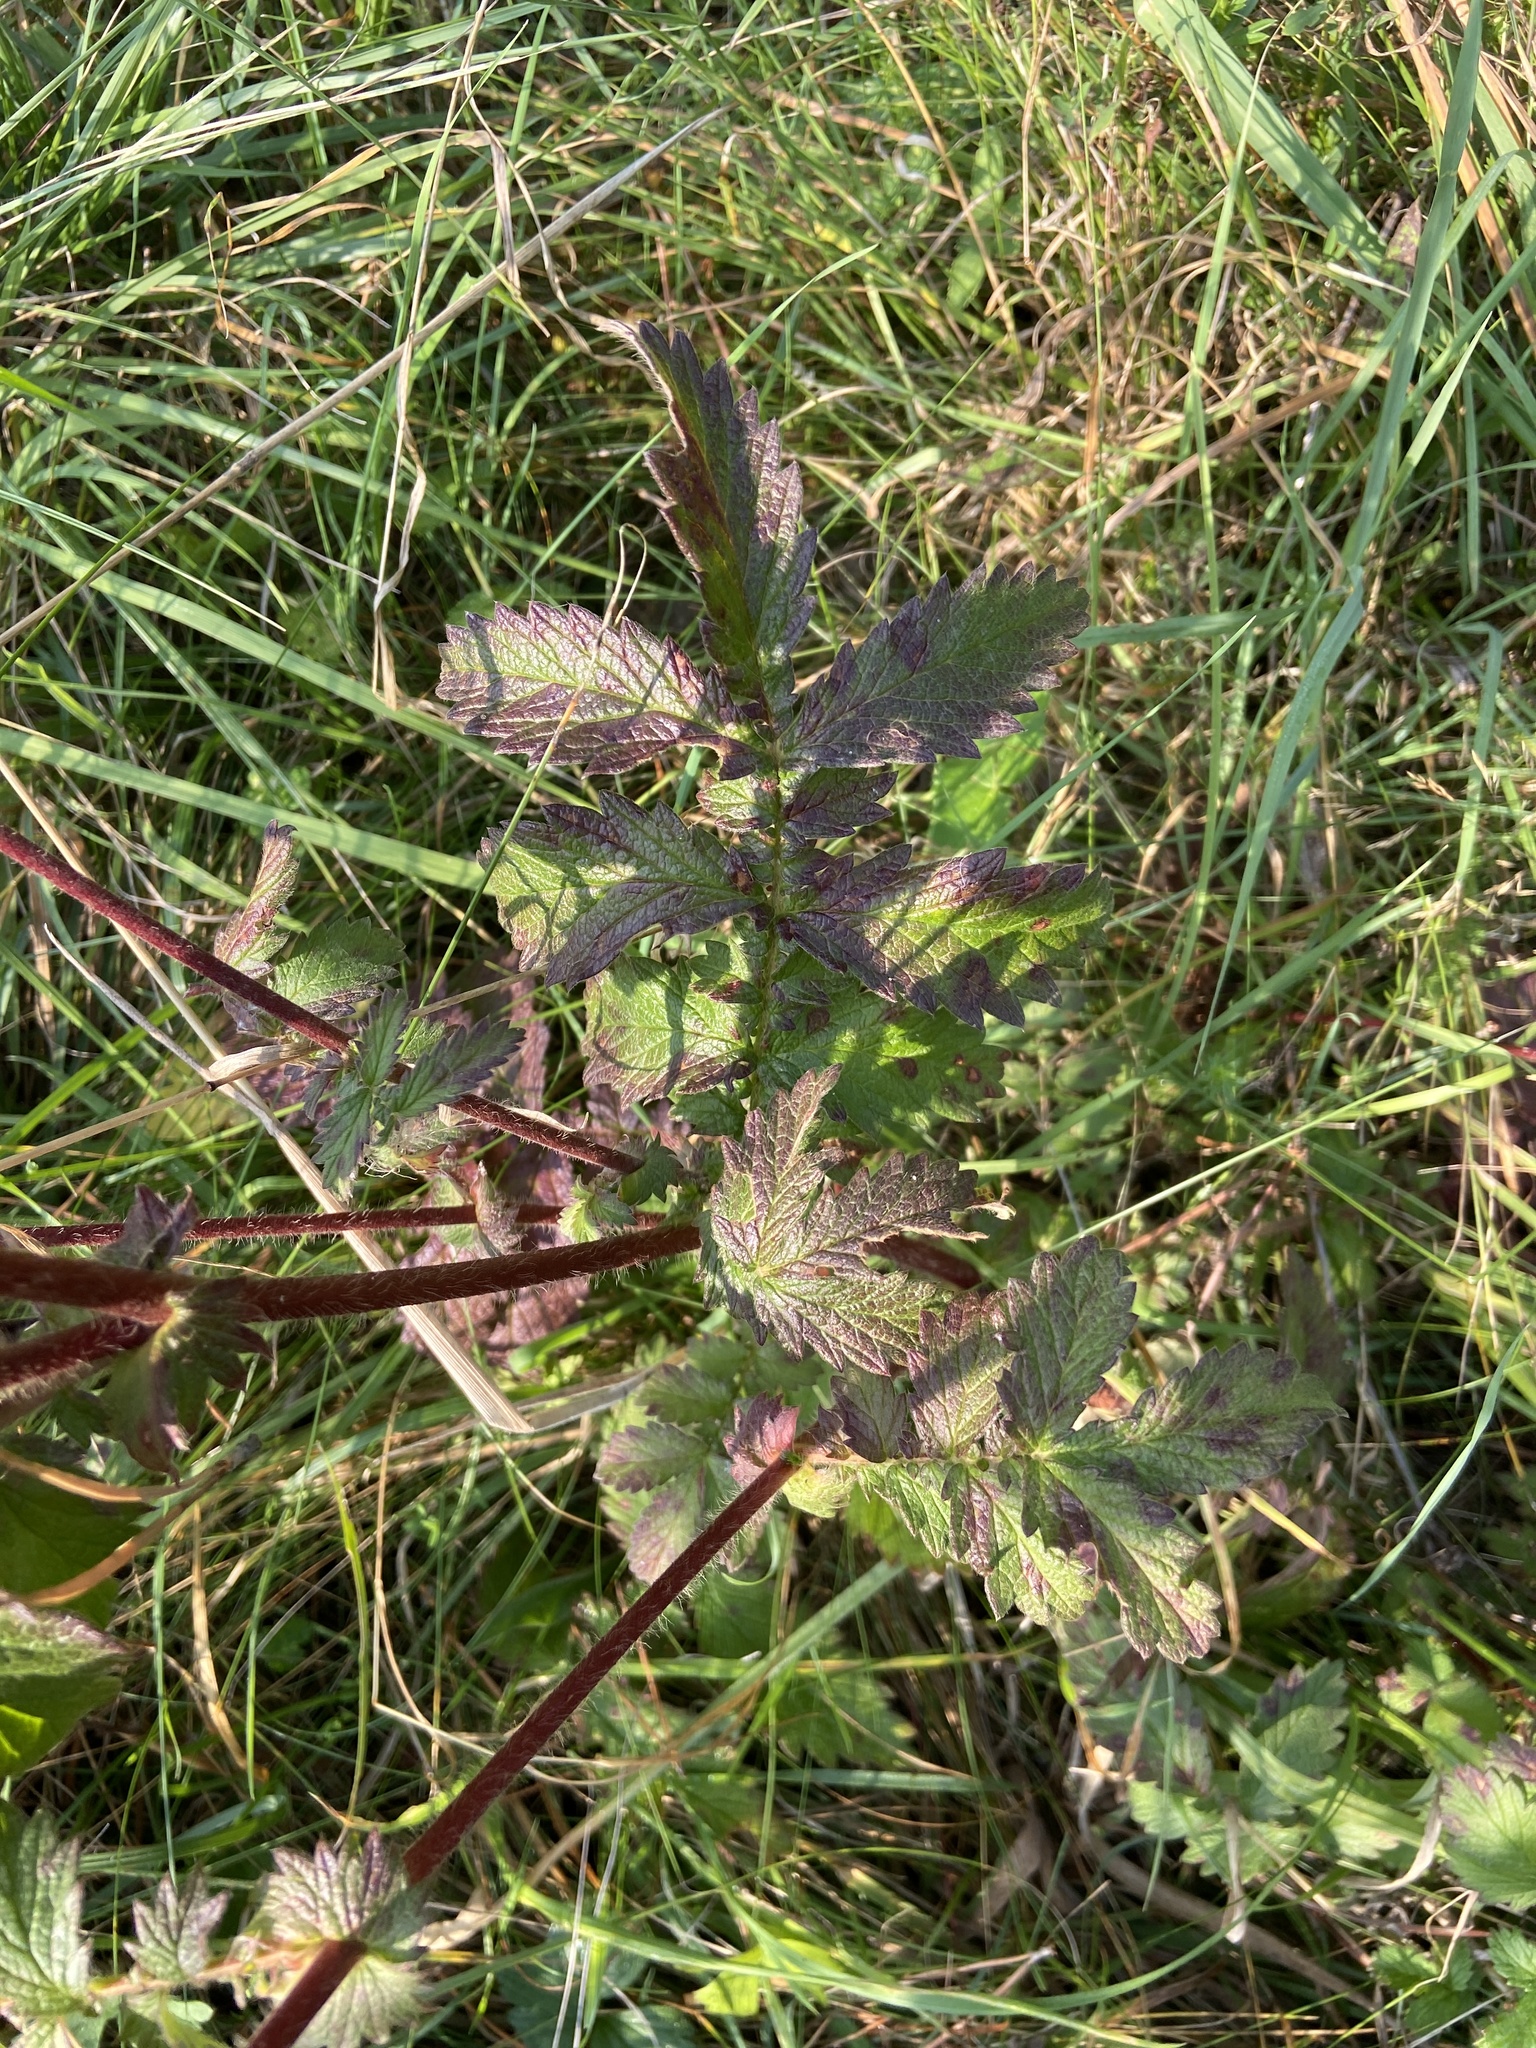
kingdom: Plantae
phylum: Tracheophyta
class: Magnoliopsida
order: Rosales
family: Rosaceae
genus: Agrimonia
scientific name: Agrimonia eupatoria
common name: Agrimony
